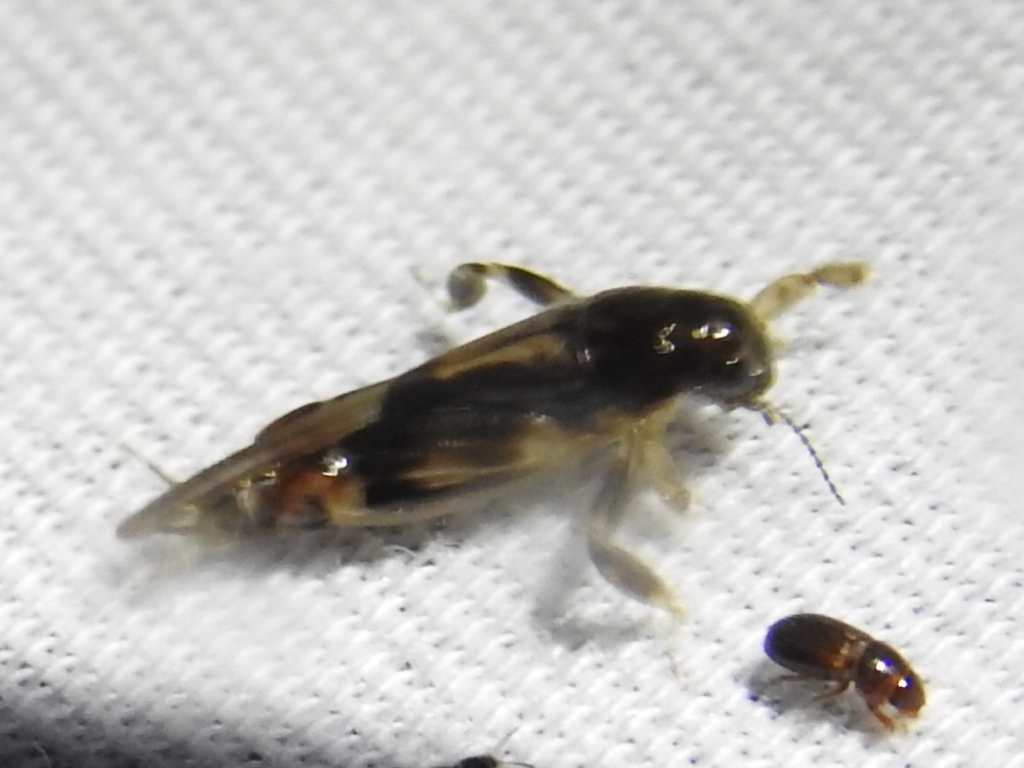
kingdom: Animalia
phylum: Arthropoda
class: Insecta
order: Orthoptera
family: Tridactylidae
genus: Neotridactylus
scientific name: Neotridactylus apicialis
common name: Larger pygmy locust
